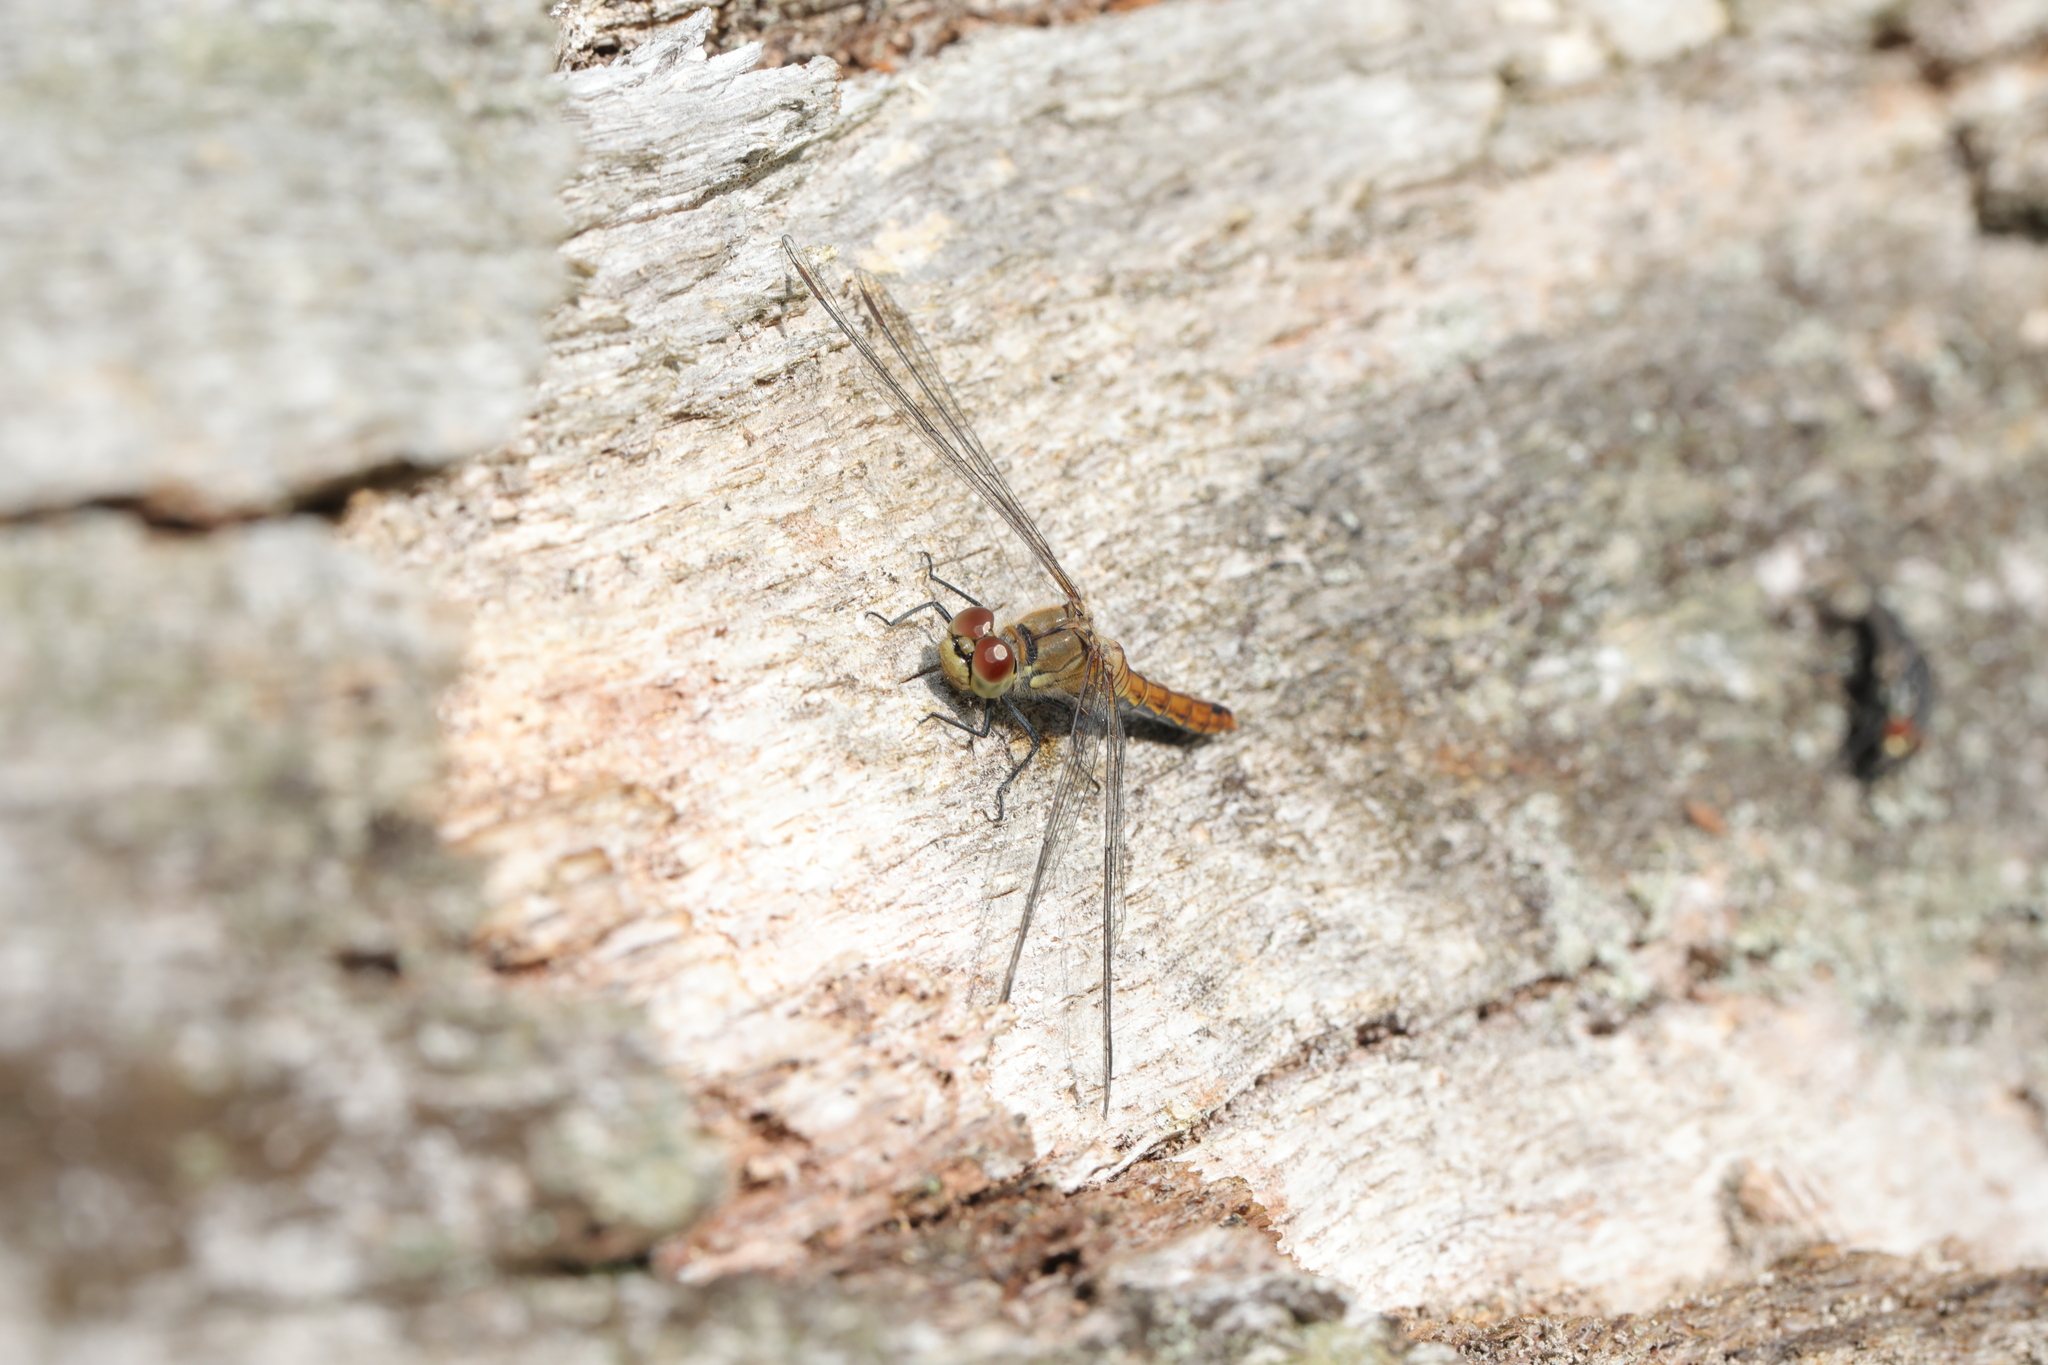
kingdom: Animalia
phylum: Arthropoda
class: Insecta
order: Odonata
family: Libellulidae
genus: Sympetrum
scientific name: Sympetrum striolatum
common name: Common darter
